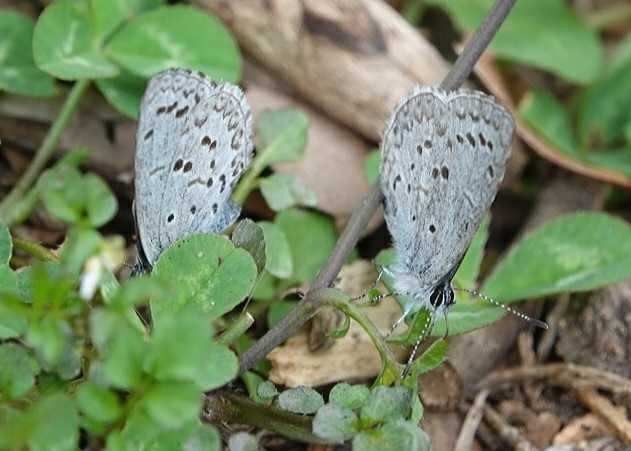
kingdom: Animalia
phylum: Arthropoda
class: Insecta
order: Lepidoptera
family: Lycaenidae
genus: Celastrina
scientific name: Celastrina ladon
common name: Spring azure
